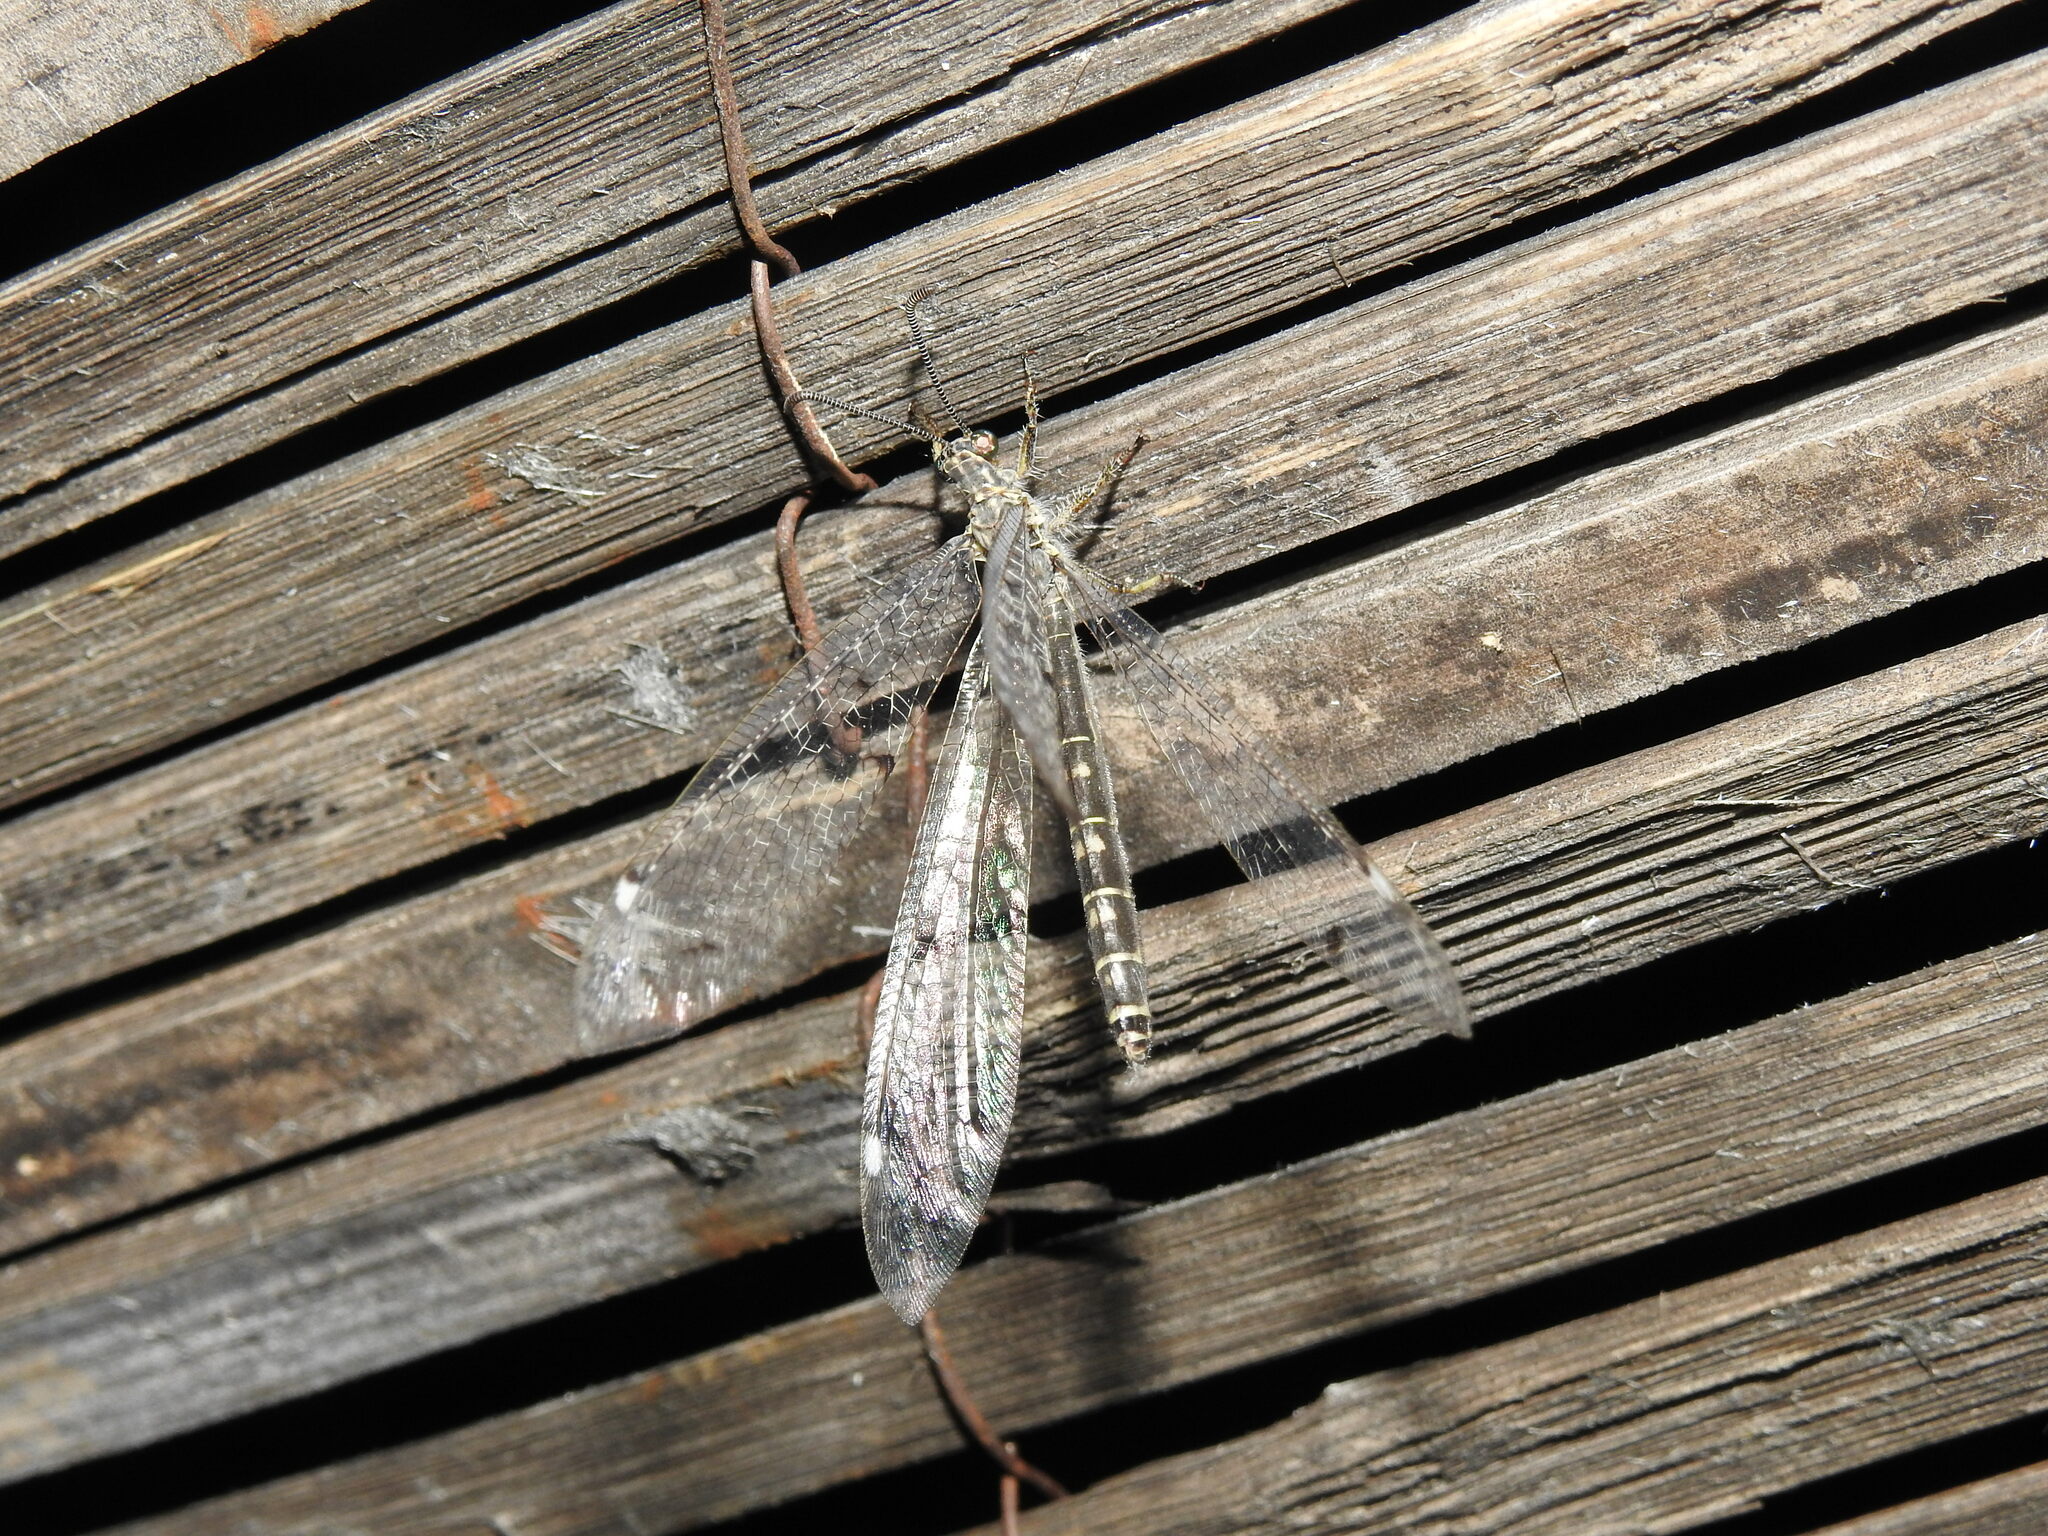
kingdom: Animalia
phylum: Arthropoda
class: Insecta
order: Neuroptera
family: Myrmeleontidae
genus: Distoleon
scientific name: Distoleon tetragrammicus
